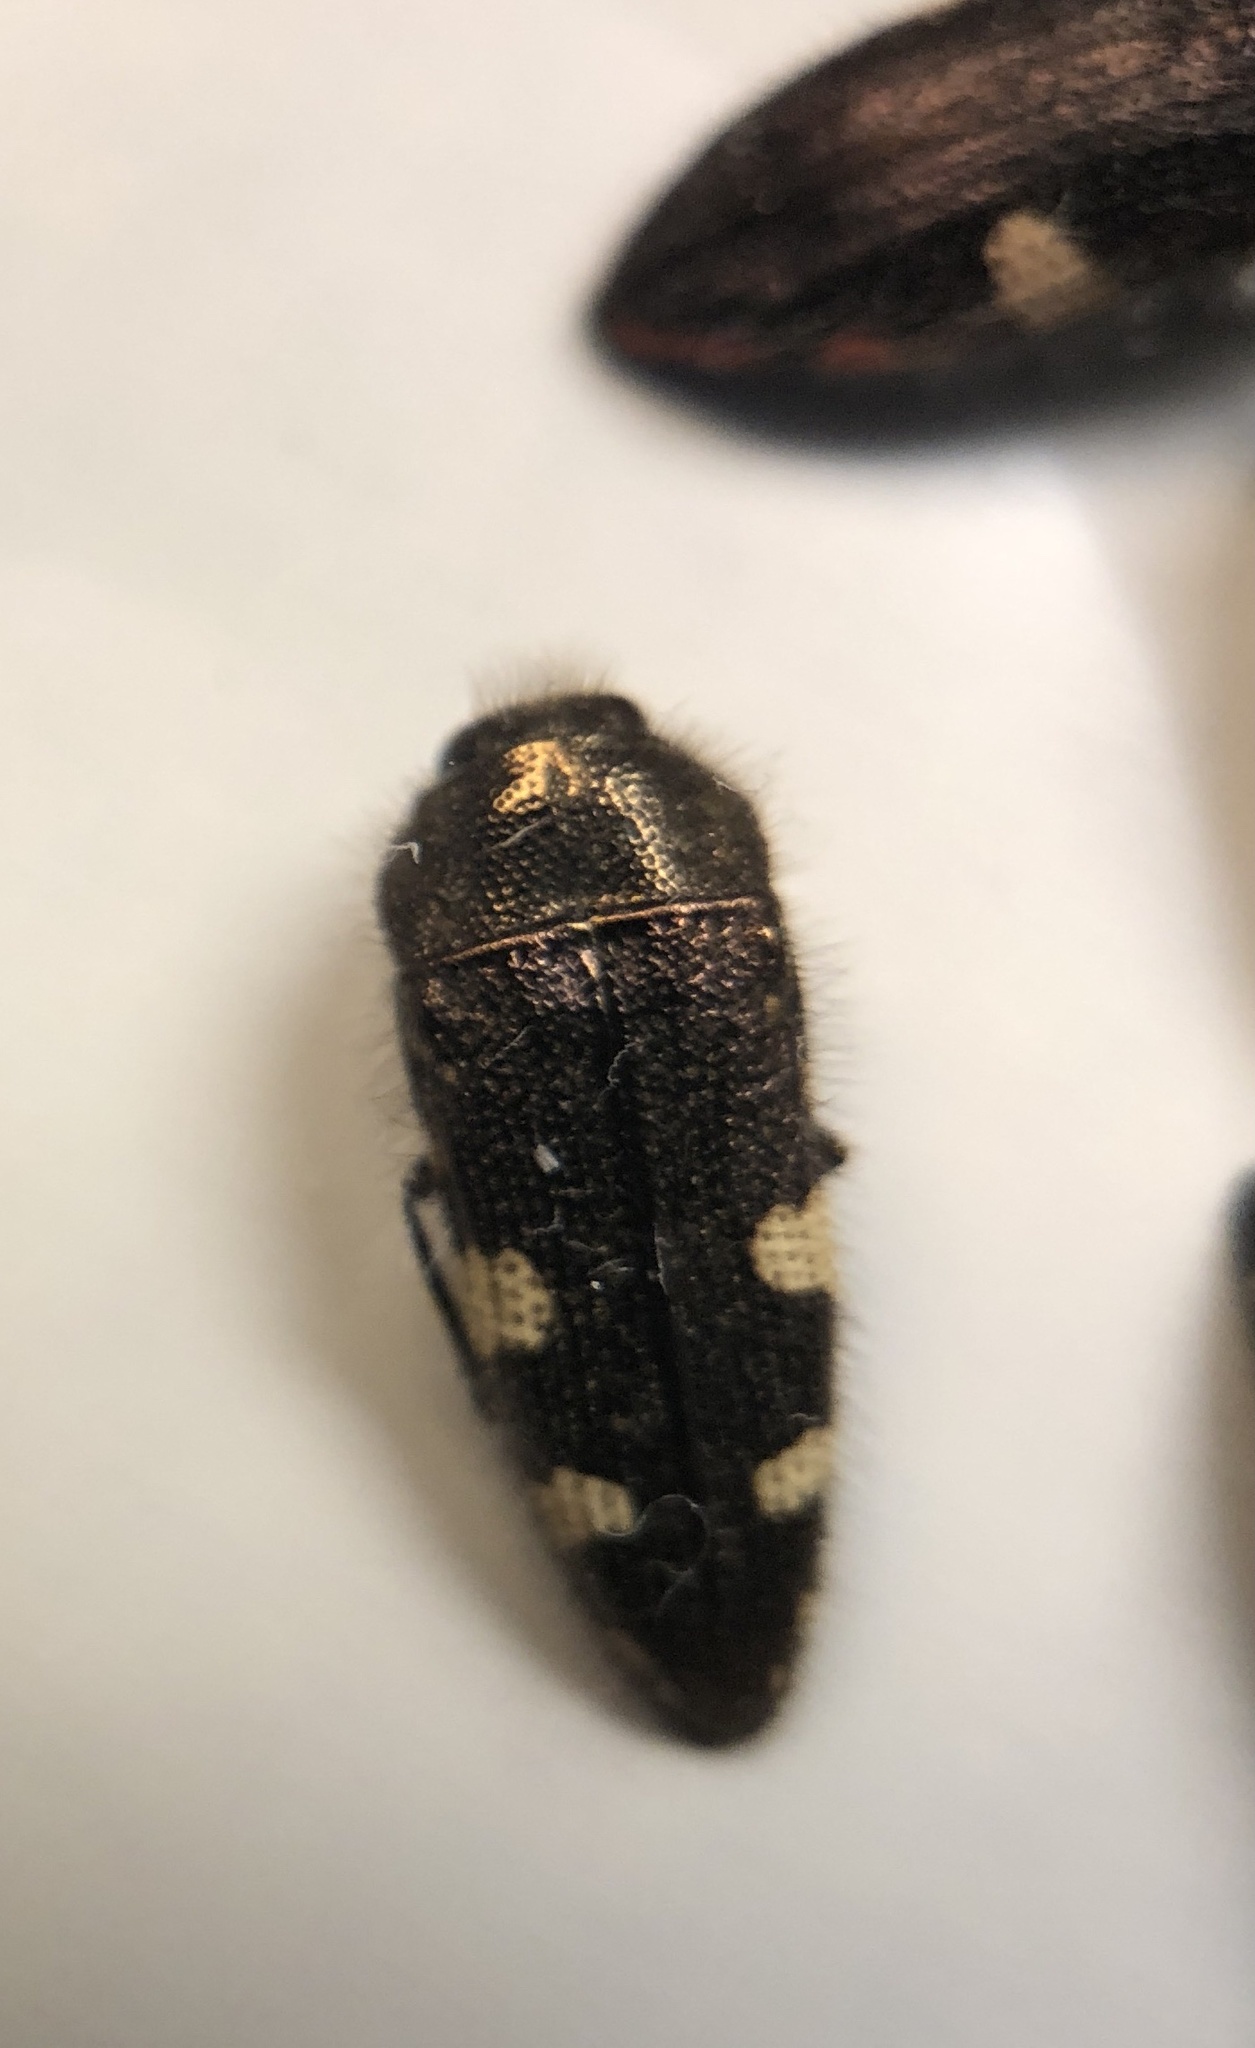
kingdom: Animalia
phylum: Arthropoda
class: Insecta
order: Coleoptera
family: Buprestidae
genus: Acmaeodera
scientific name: Acmaeodera simulata
